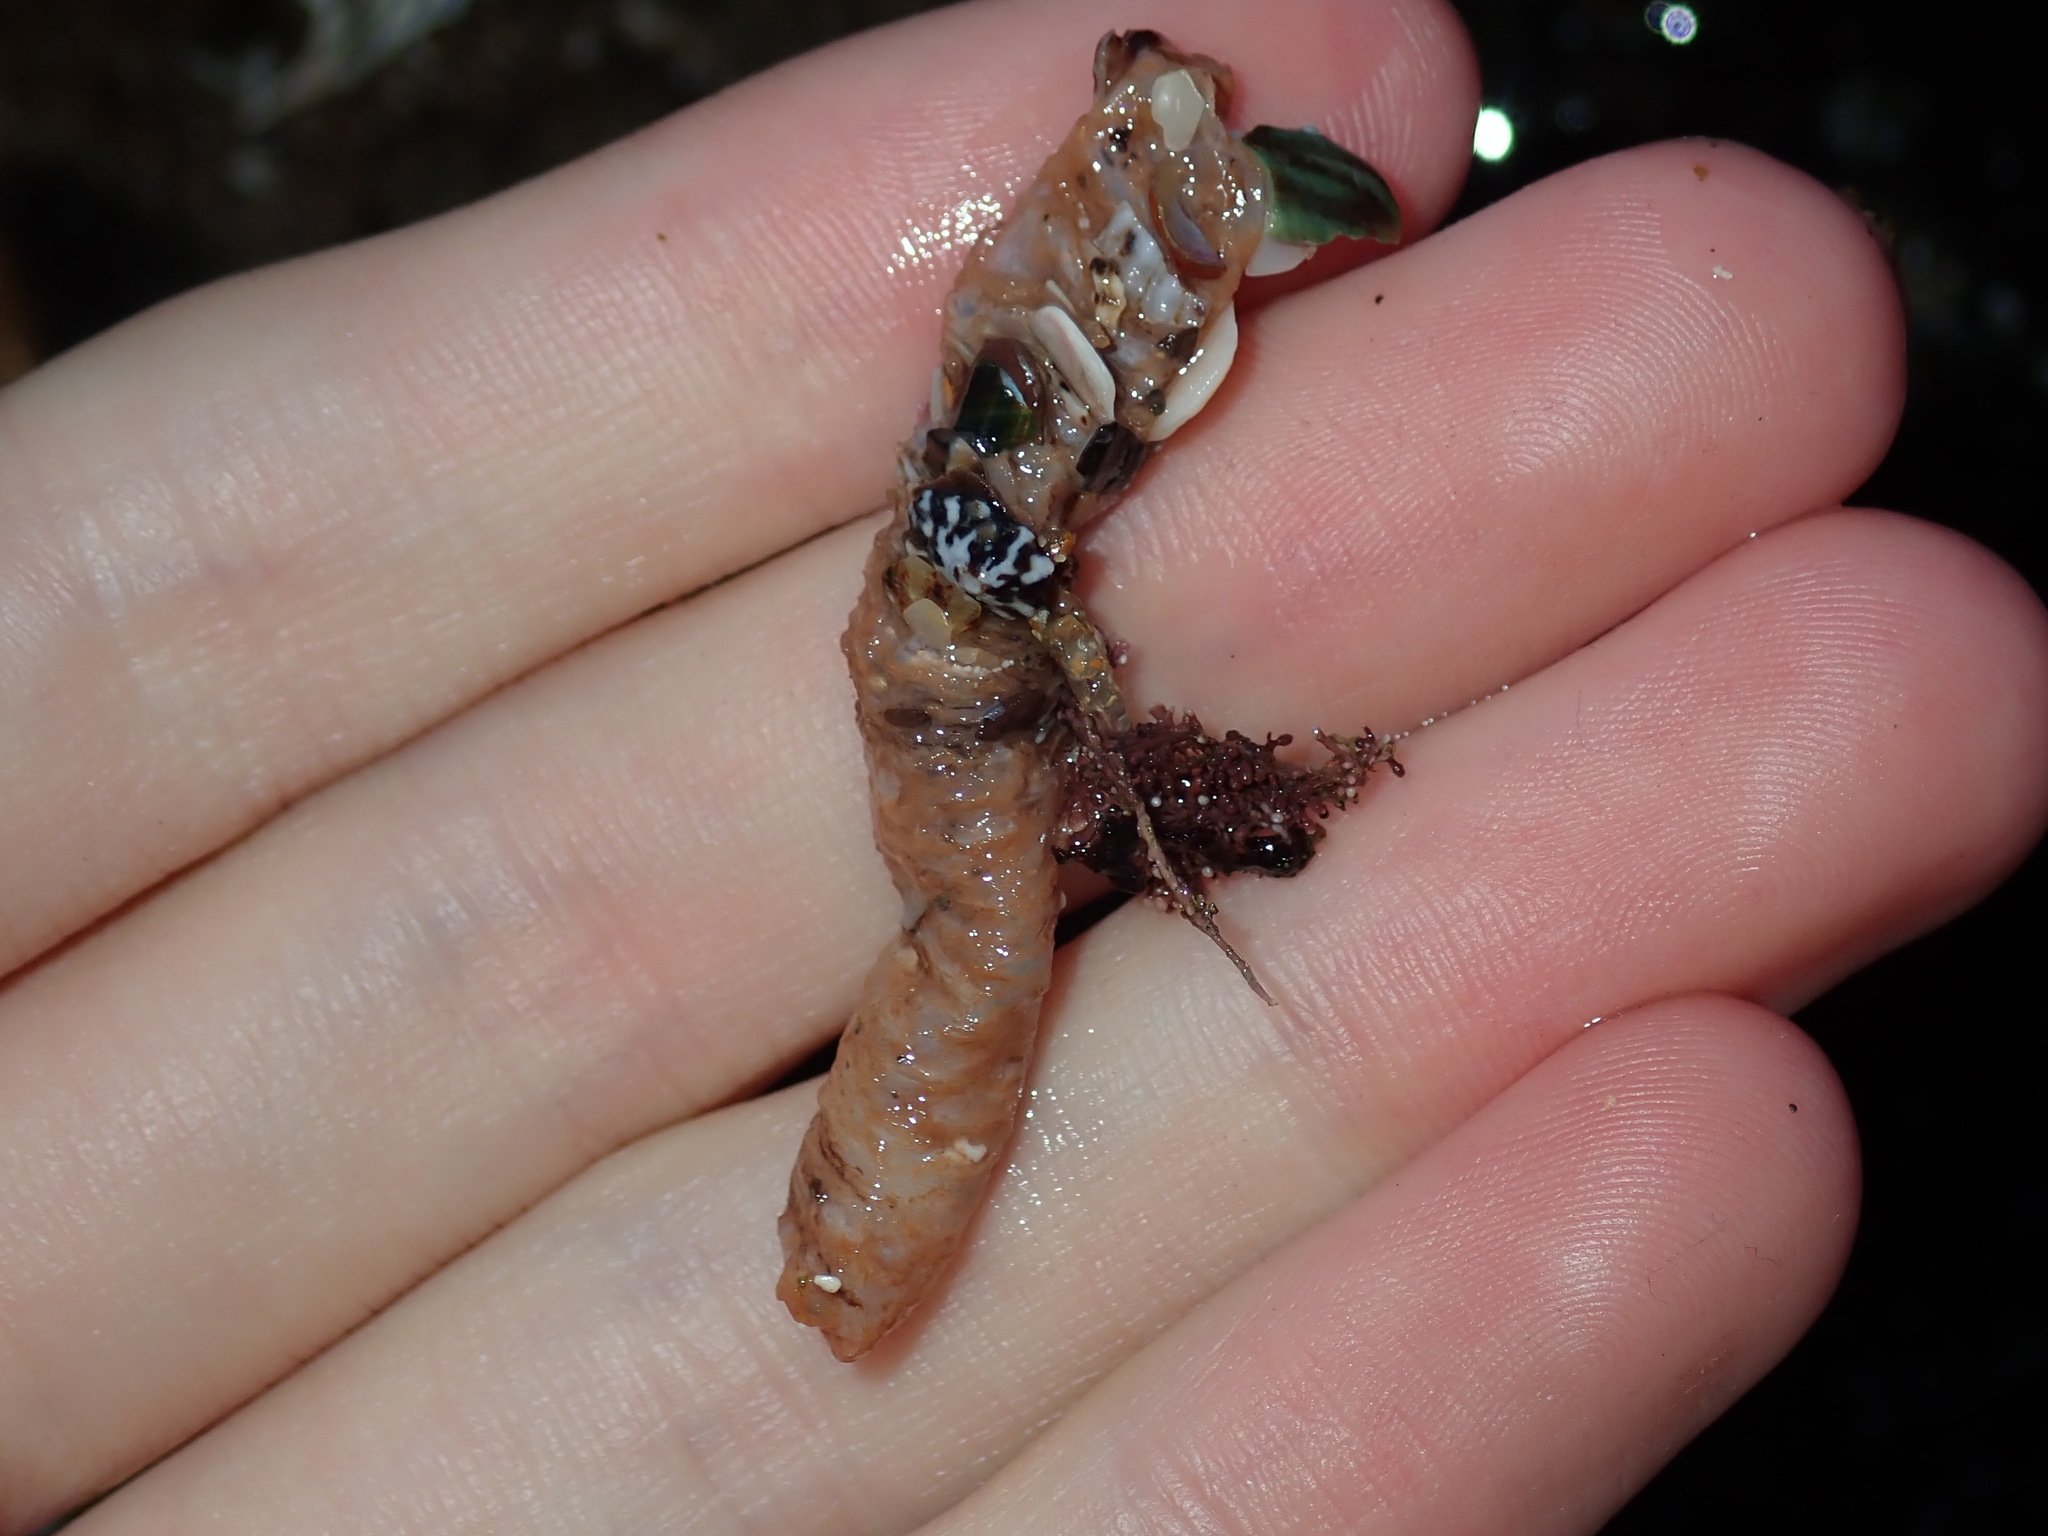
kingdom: Animalia
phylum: Annelida
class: Polychaeta
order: Eunicida
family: Onuphidae
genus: Diopatra
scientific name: Diopatra dentata
